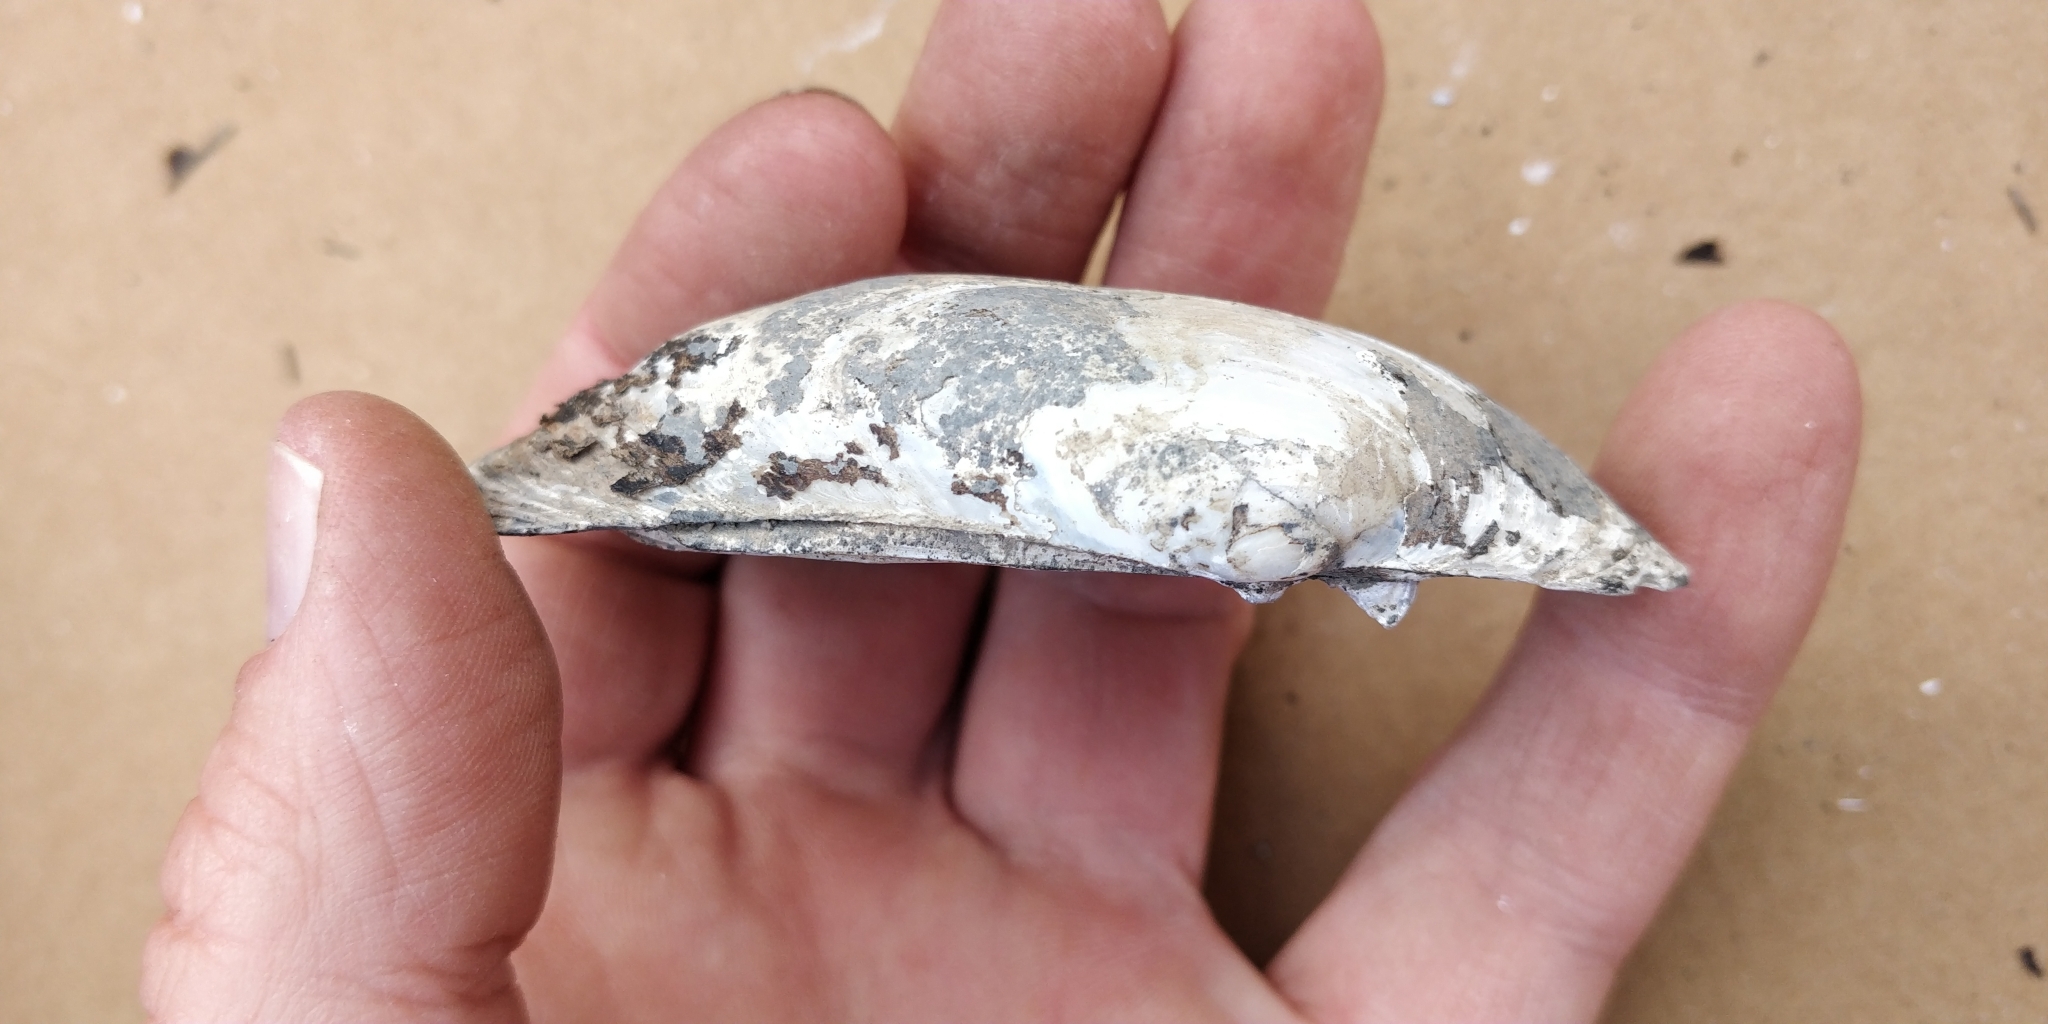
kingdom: Animalia
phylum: Mollusca
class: Bivalvia
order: Unionida
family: Unionidae
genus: Lampsilis
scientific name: Lampsilis siliquoidea
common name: Fatmucket
